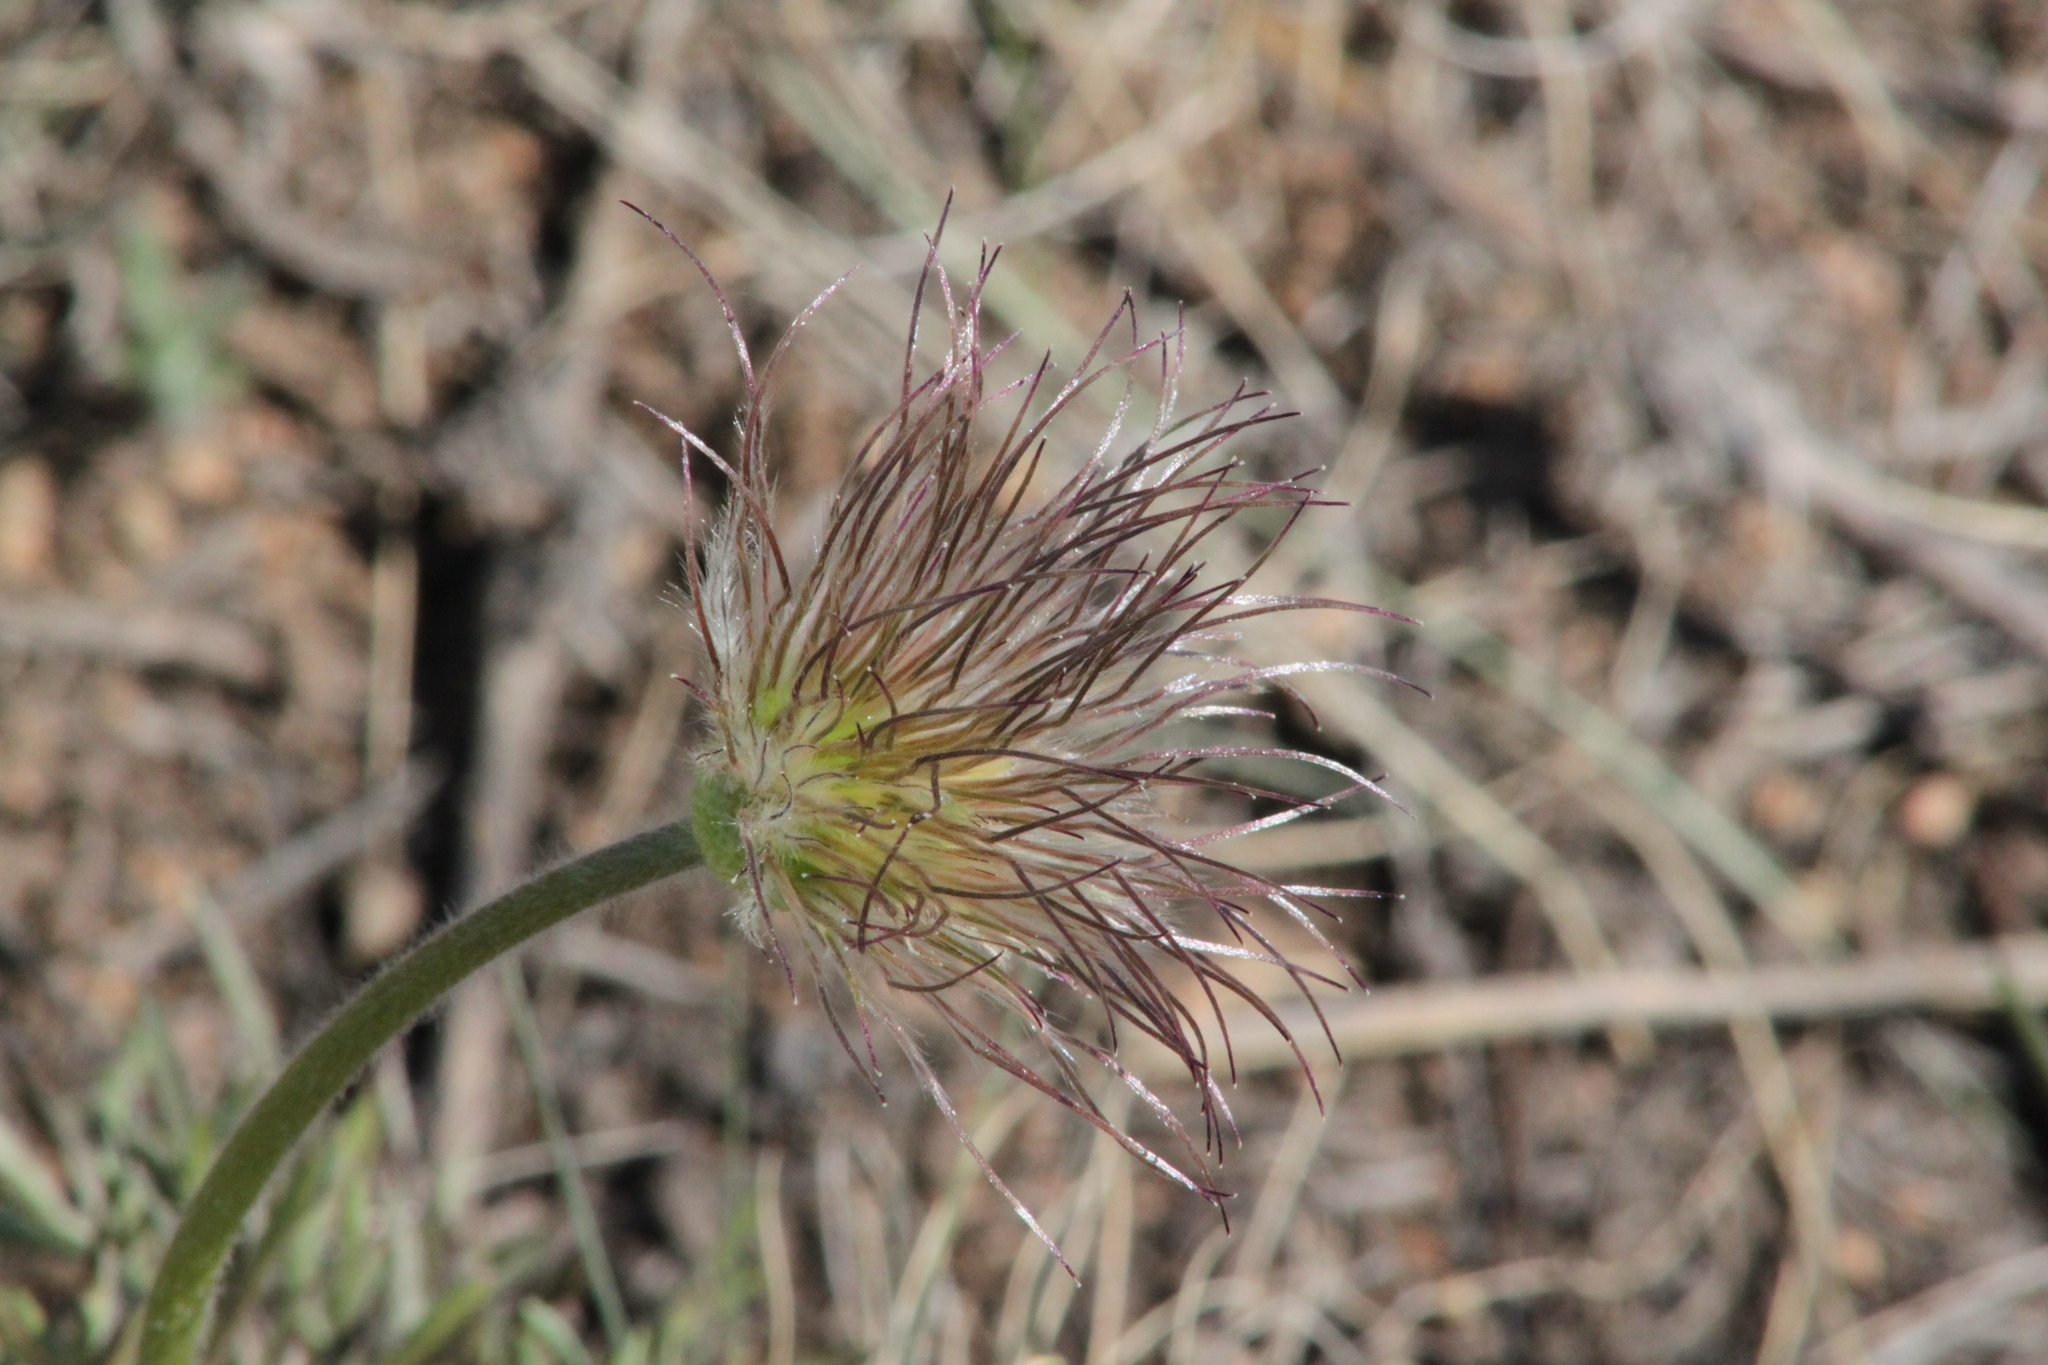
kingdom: Plantae
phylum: Tracheophyta
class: Magnoliopsida
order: Ranunculales
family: Ranunculaceae
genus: Pulsatilla
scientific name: Pulsatilla patens
